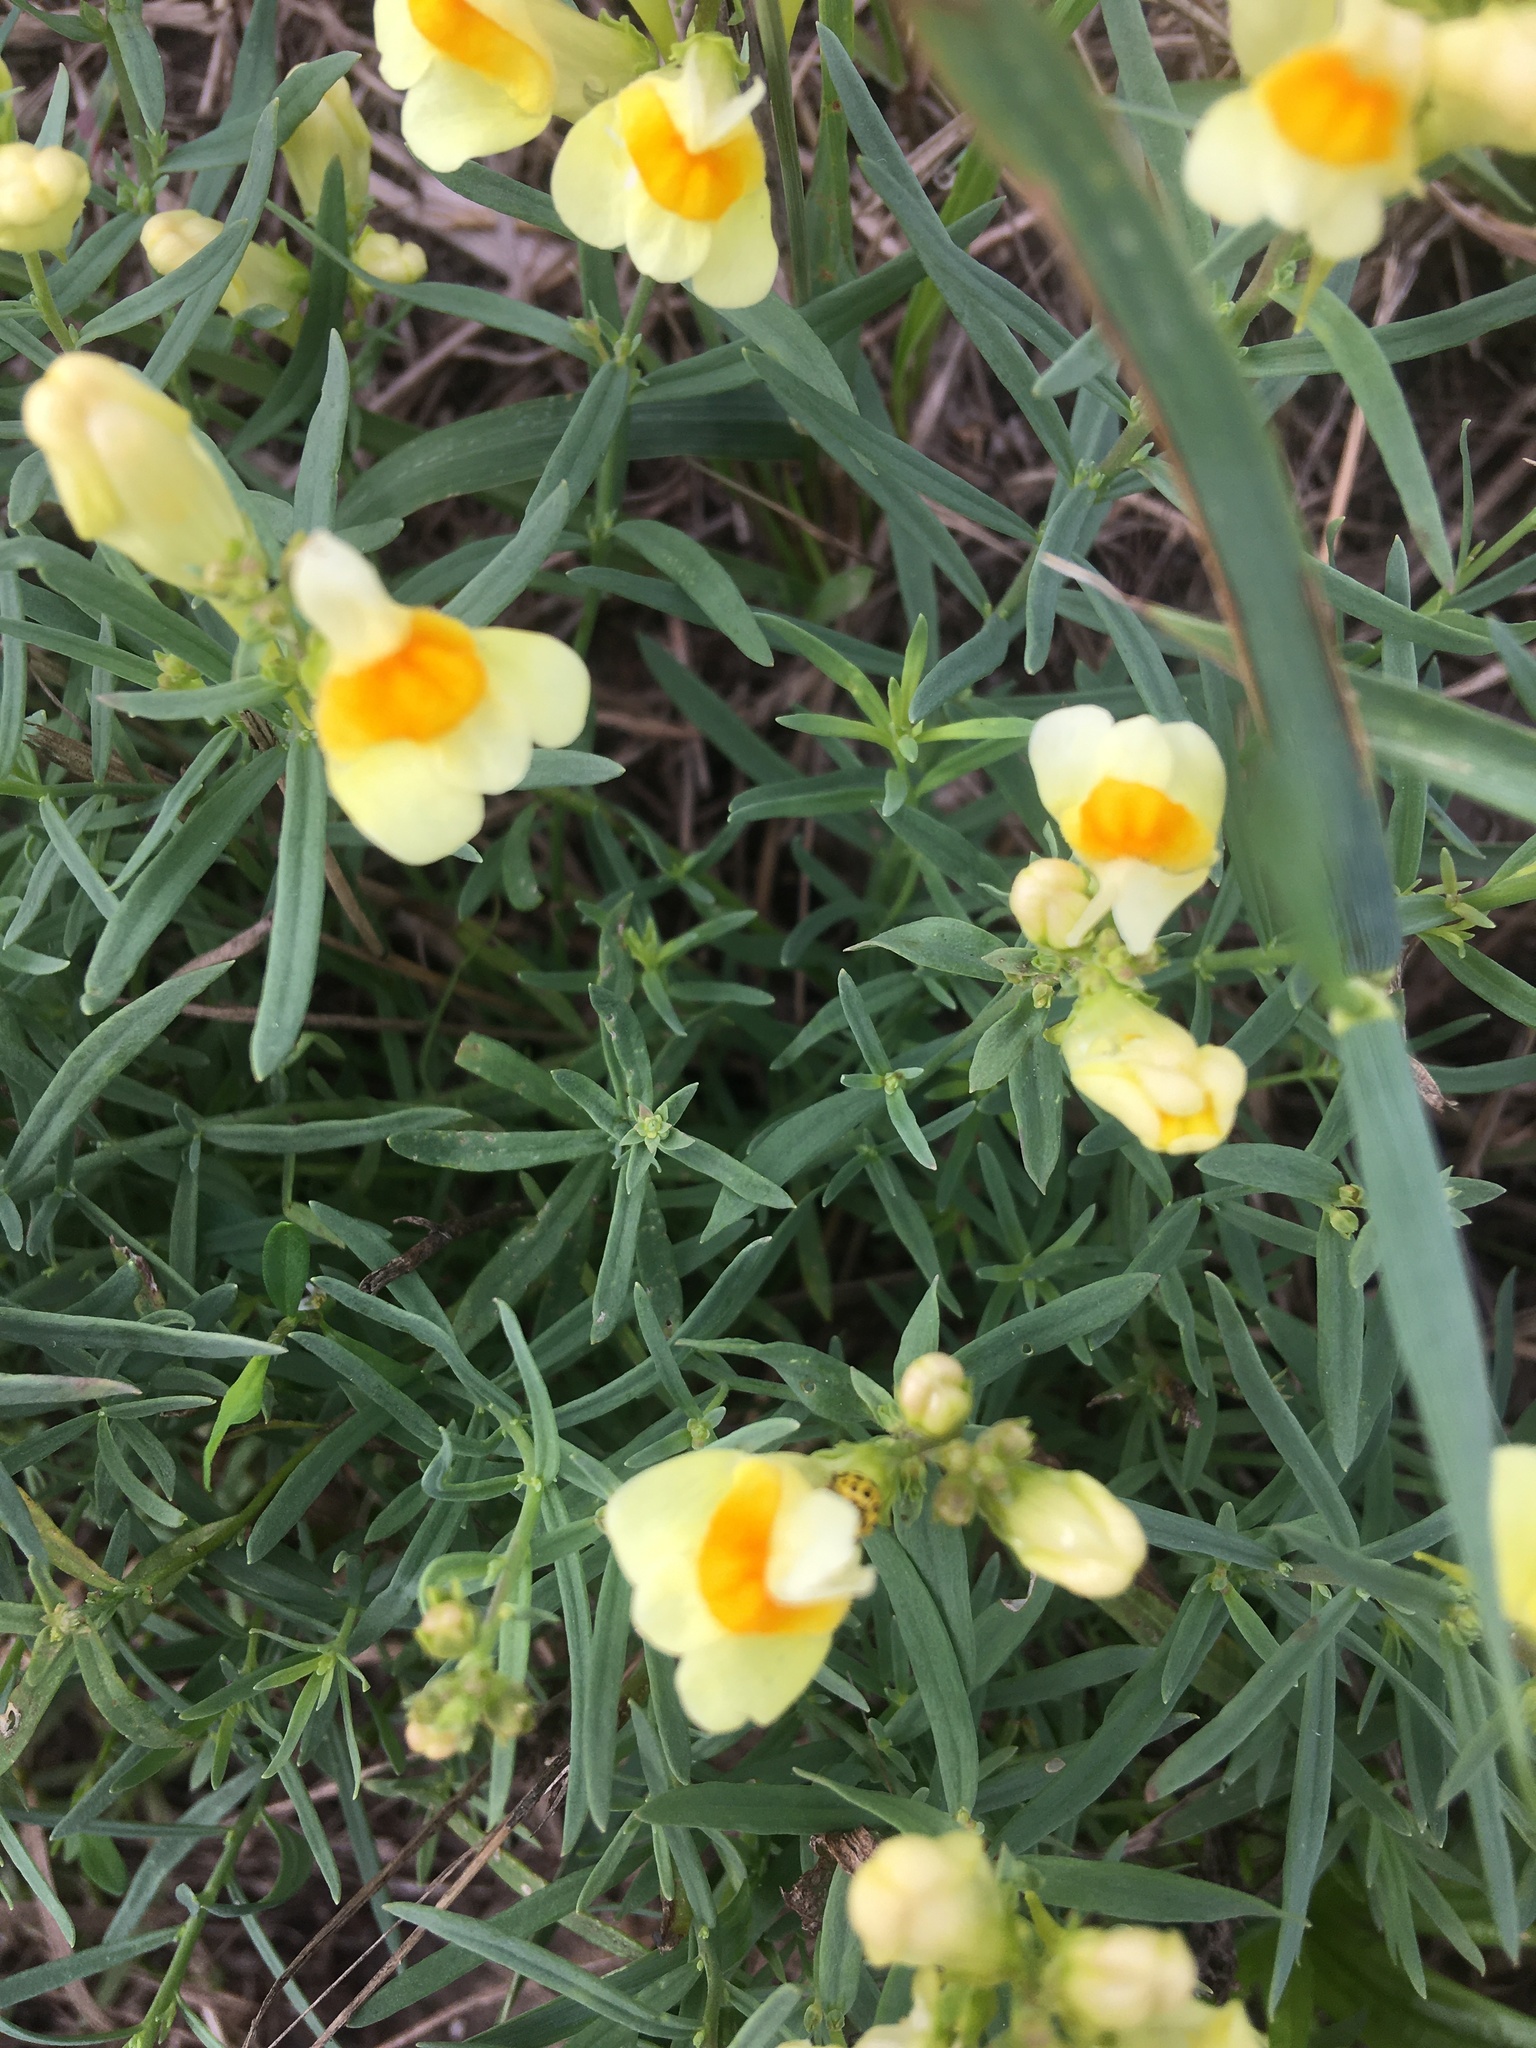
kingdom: Plantae
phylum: Tracheophyta
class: Magnoliopsida
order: Lamiales
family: Plantaginaceae
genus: Linaria
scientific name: Linaria vulgaris
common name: Butter and eggs
